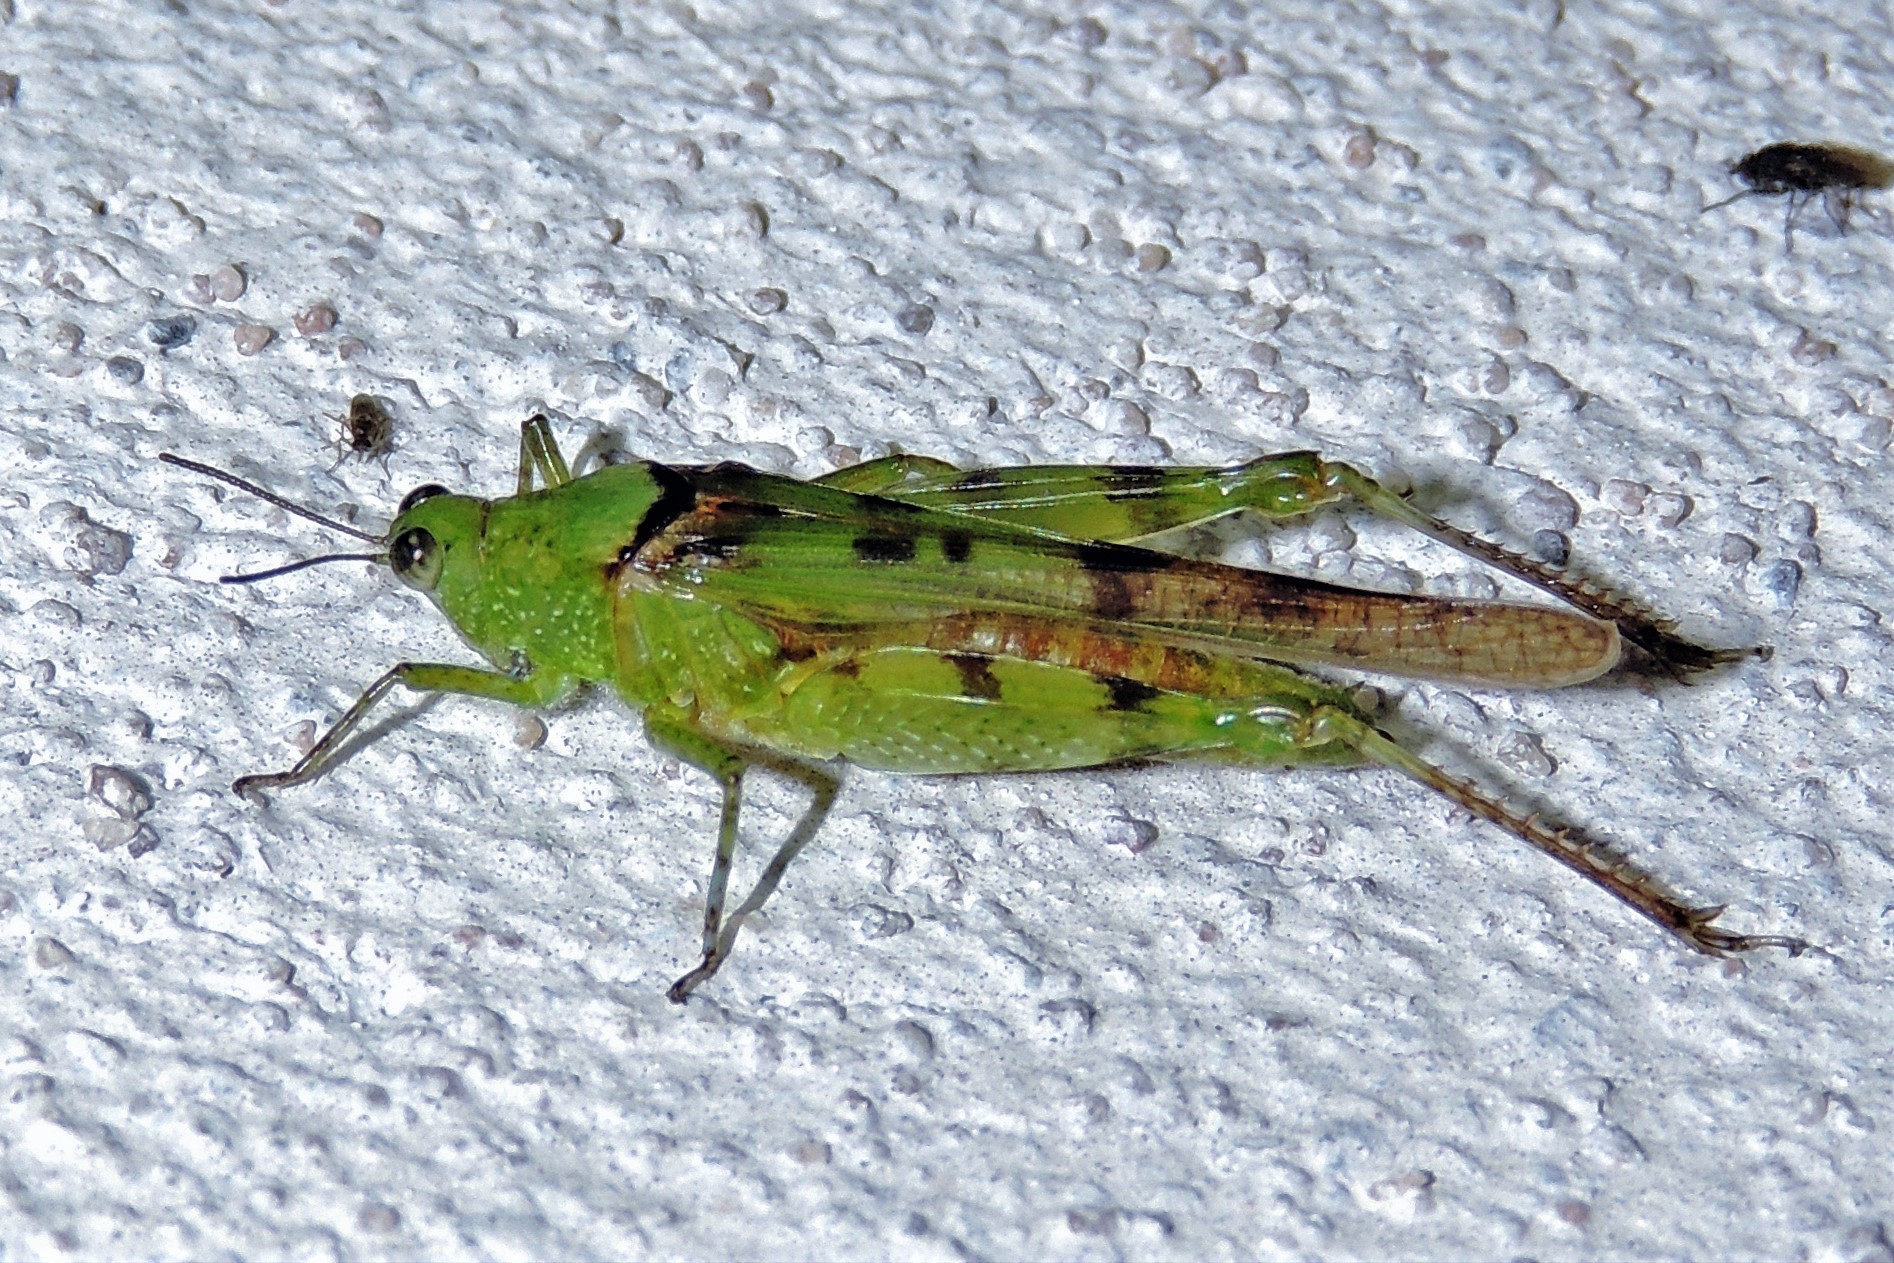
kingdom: Animalia
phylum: Arthropoda
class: Insecta
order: Orthoptera
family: Acrididae
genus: Paulinia
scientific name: Paulinia acuminata
